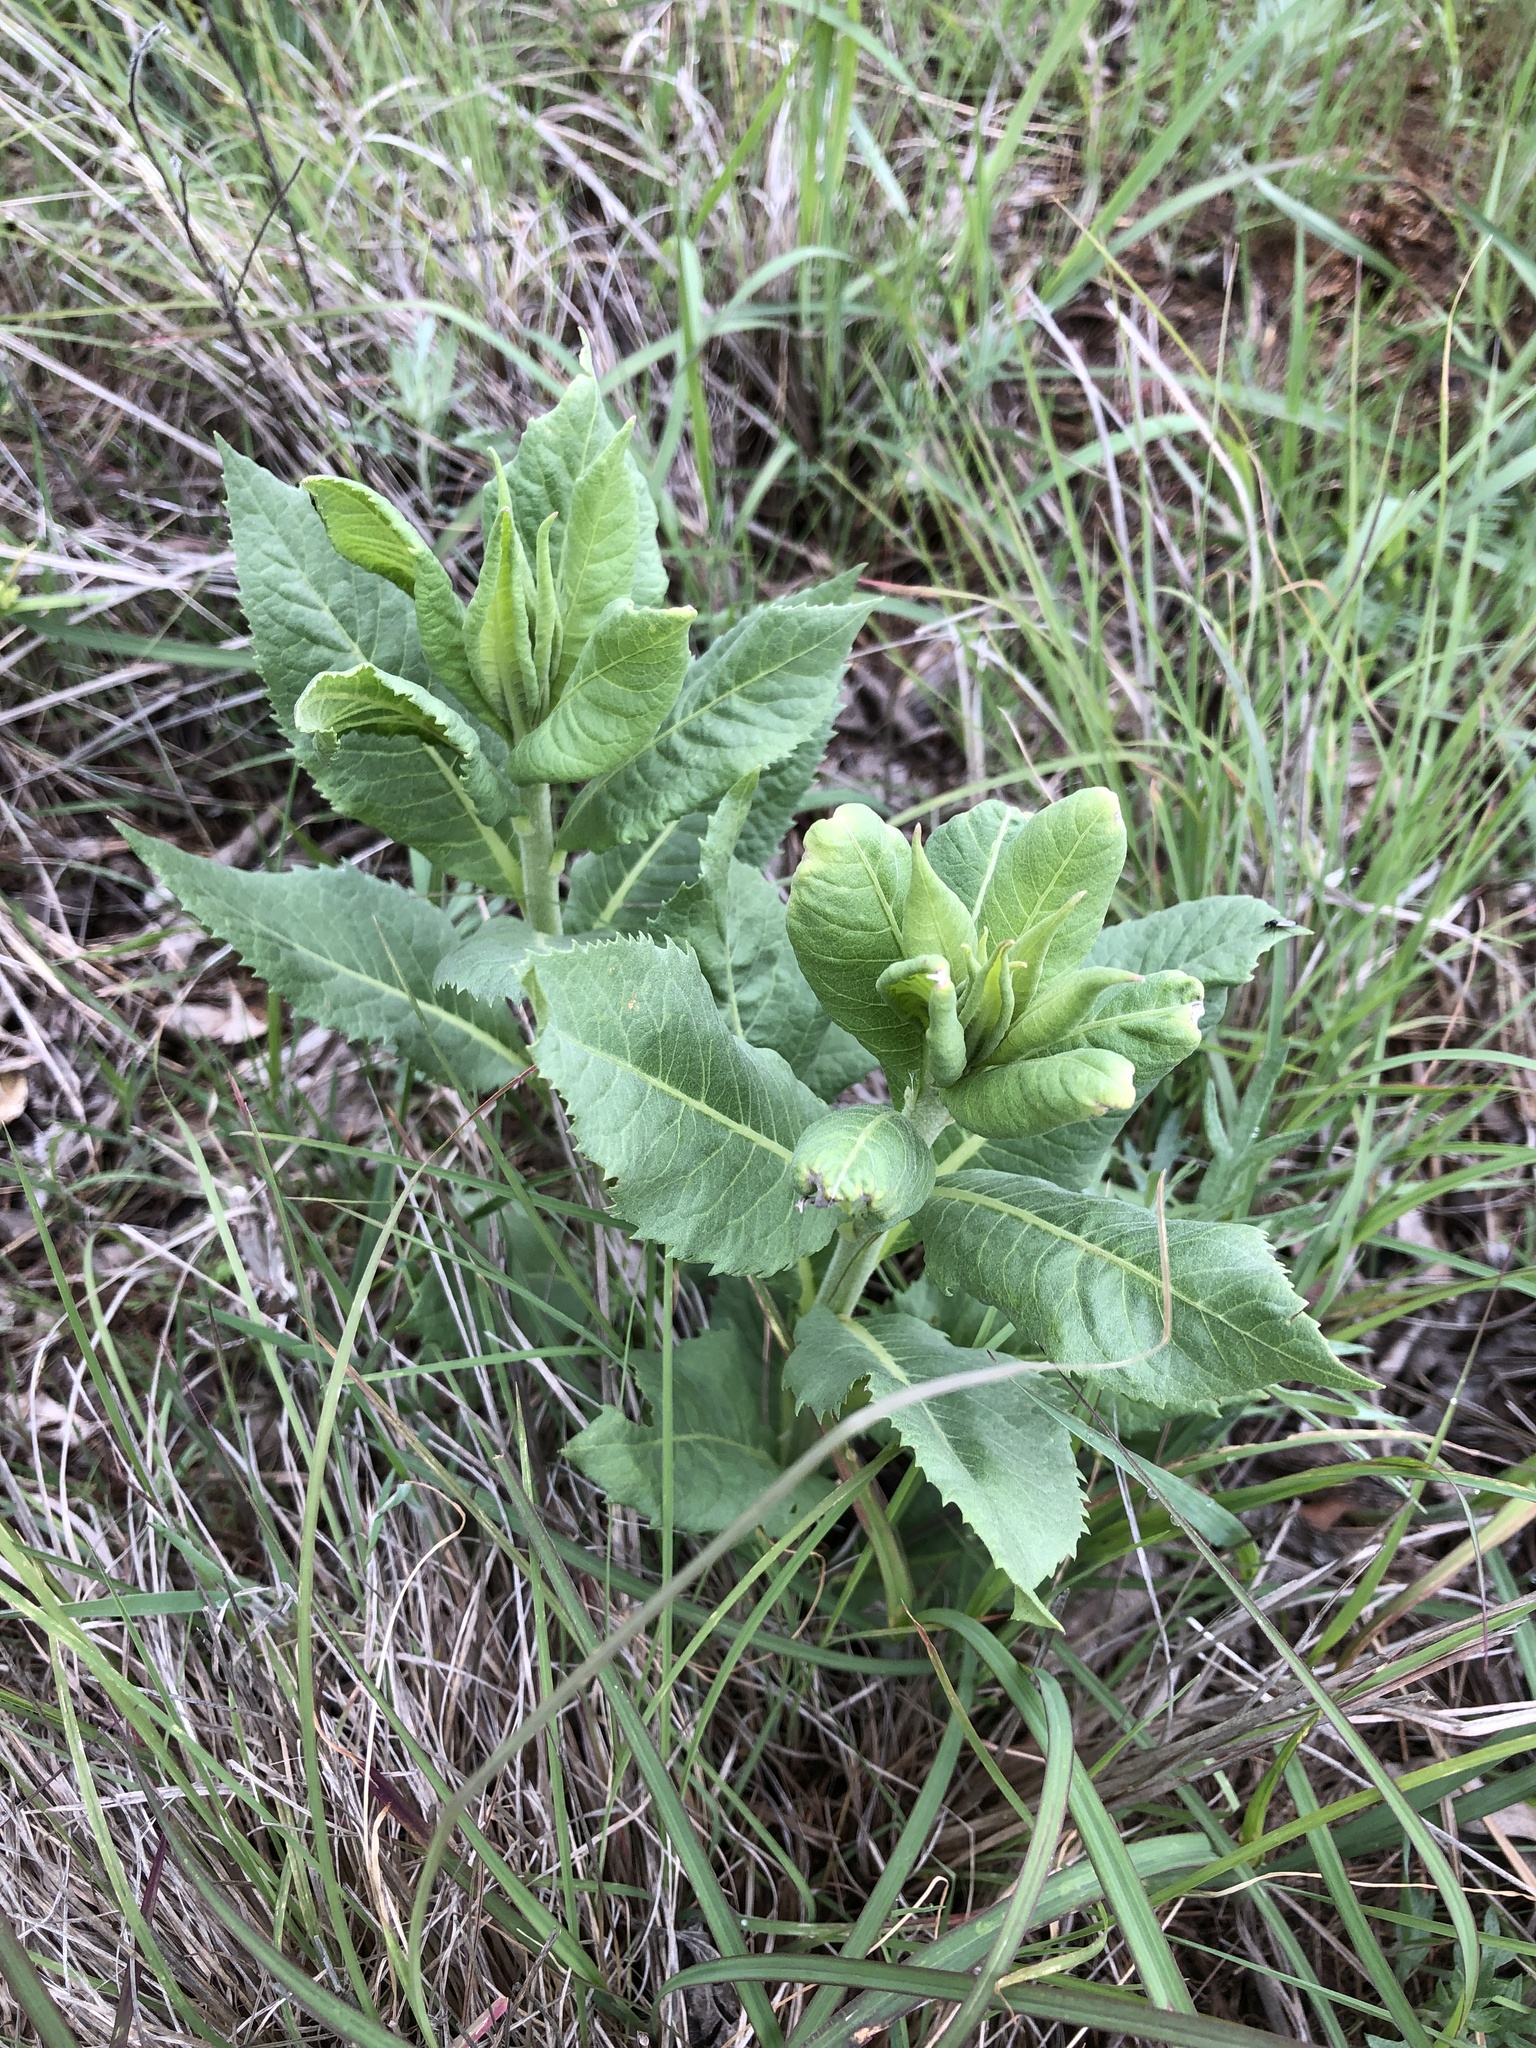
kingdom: Plantae
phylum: Tracheophyta
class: Magnoliopsida
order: Asterales
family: Asteraceae
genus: Vernonia
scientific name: Vernonia baldwinii
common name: Western ironweed
